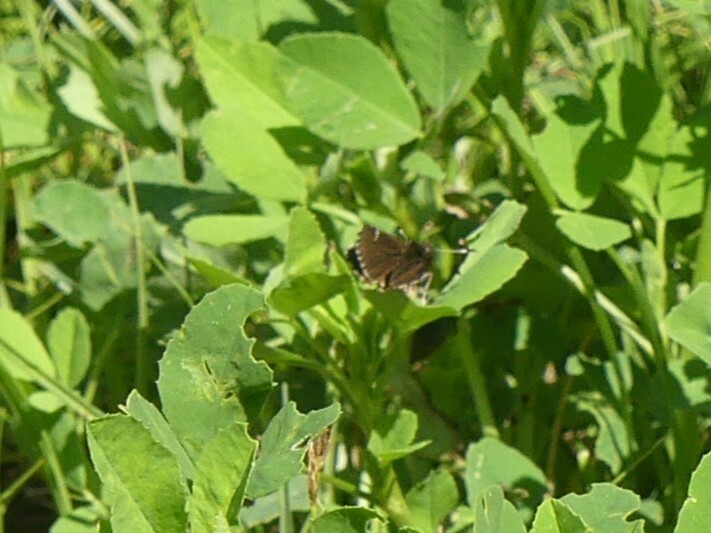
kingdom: Animalia
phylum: Arthropoda
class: Insecta
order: Lepidoptera
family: Hesperiidae
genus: Mastor
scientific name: Mastor vialis
